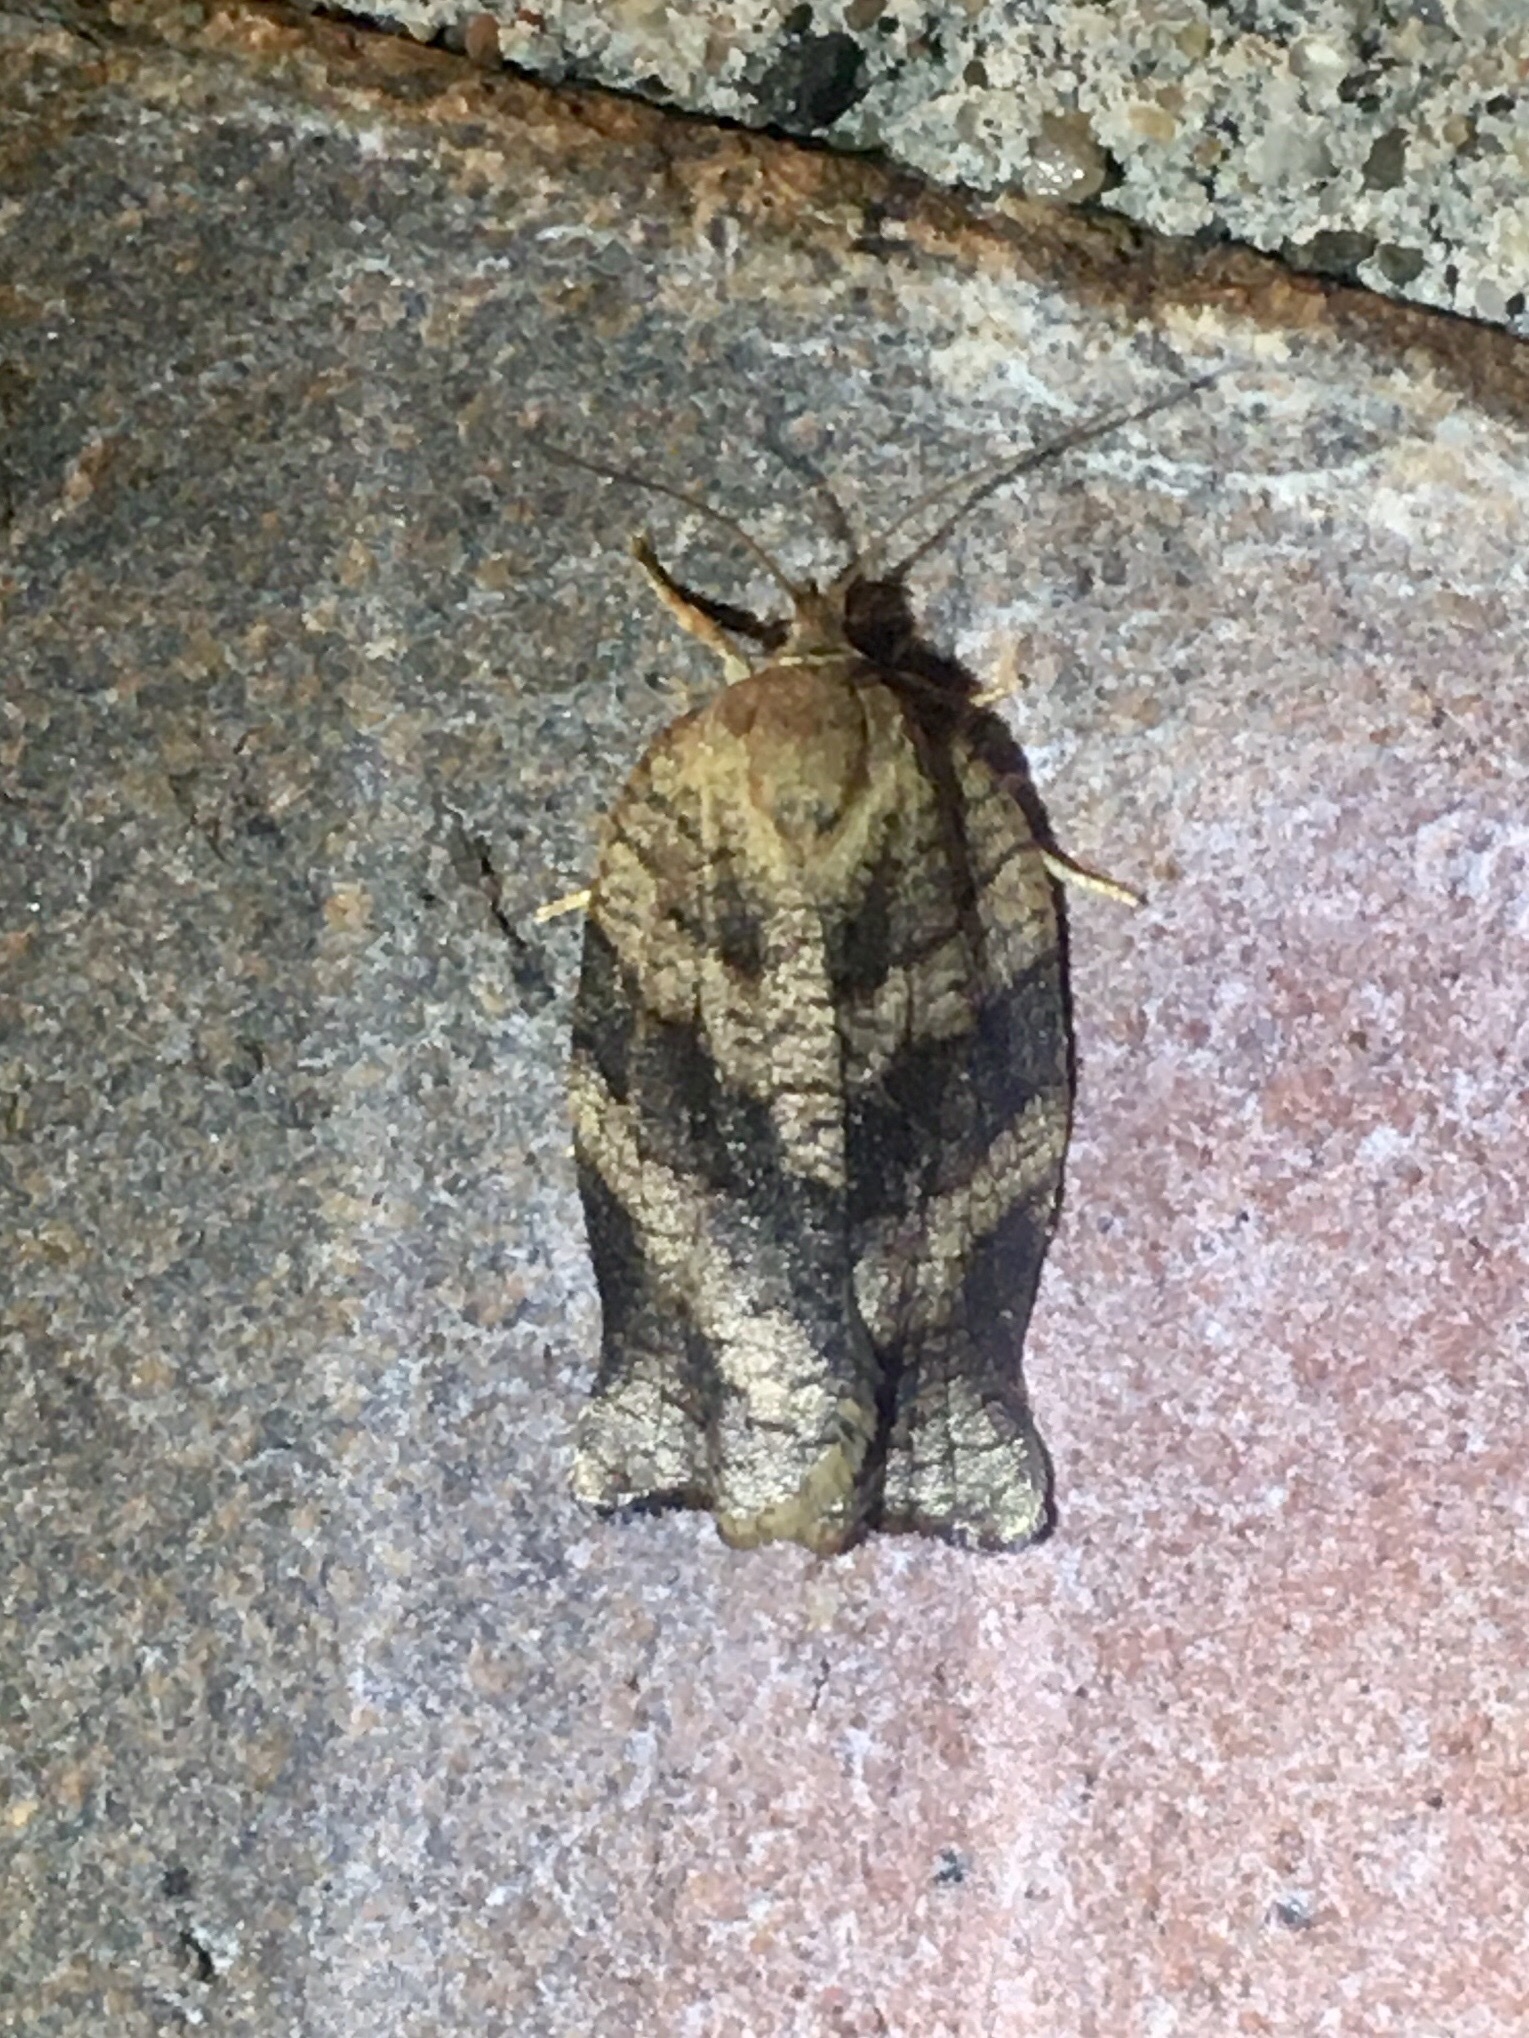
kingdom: Animalia
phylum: Arthropoda
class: Insecta
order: Lepidoptera
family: Tortricidae
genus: Archips
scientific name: Archips purpurana
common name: Omnivorous leafroller
